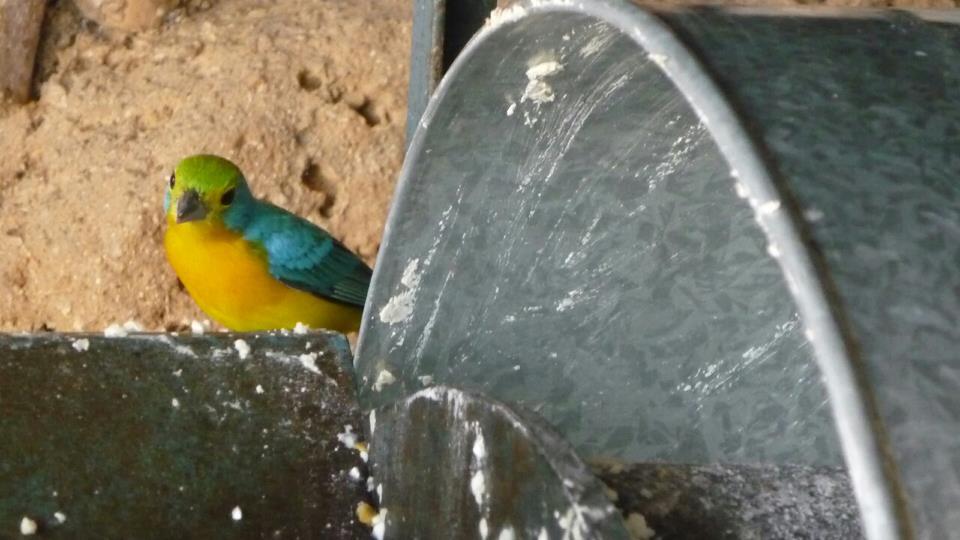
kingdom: Animalia
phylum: Chordata
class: Aves
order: Passeriformes
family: Cardinalidae
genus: Passerina
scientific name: Passerina leclancherii
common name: Orange-breasted bunting
